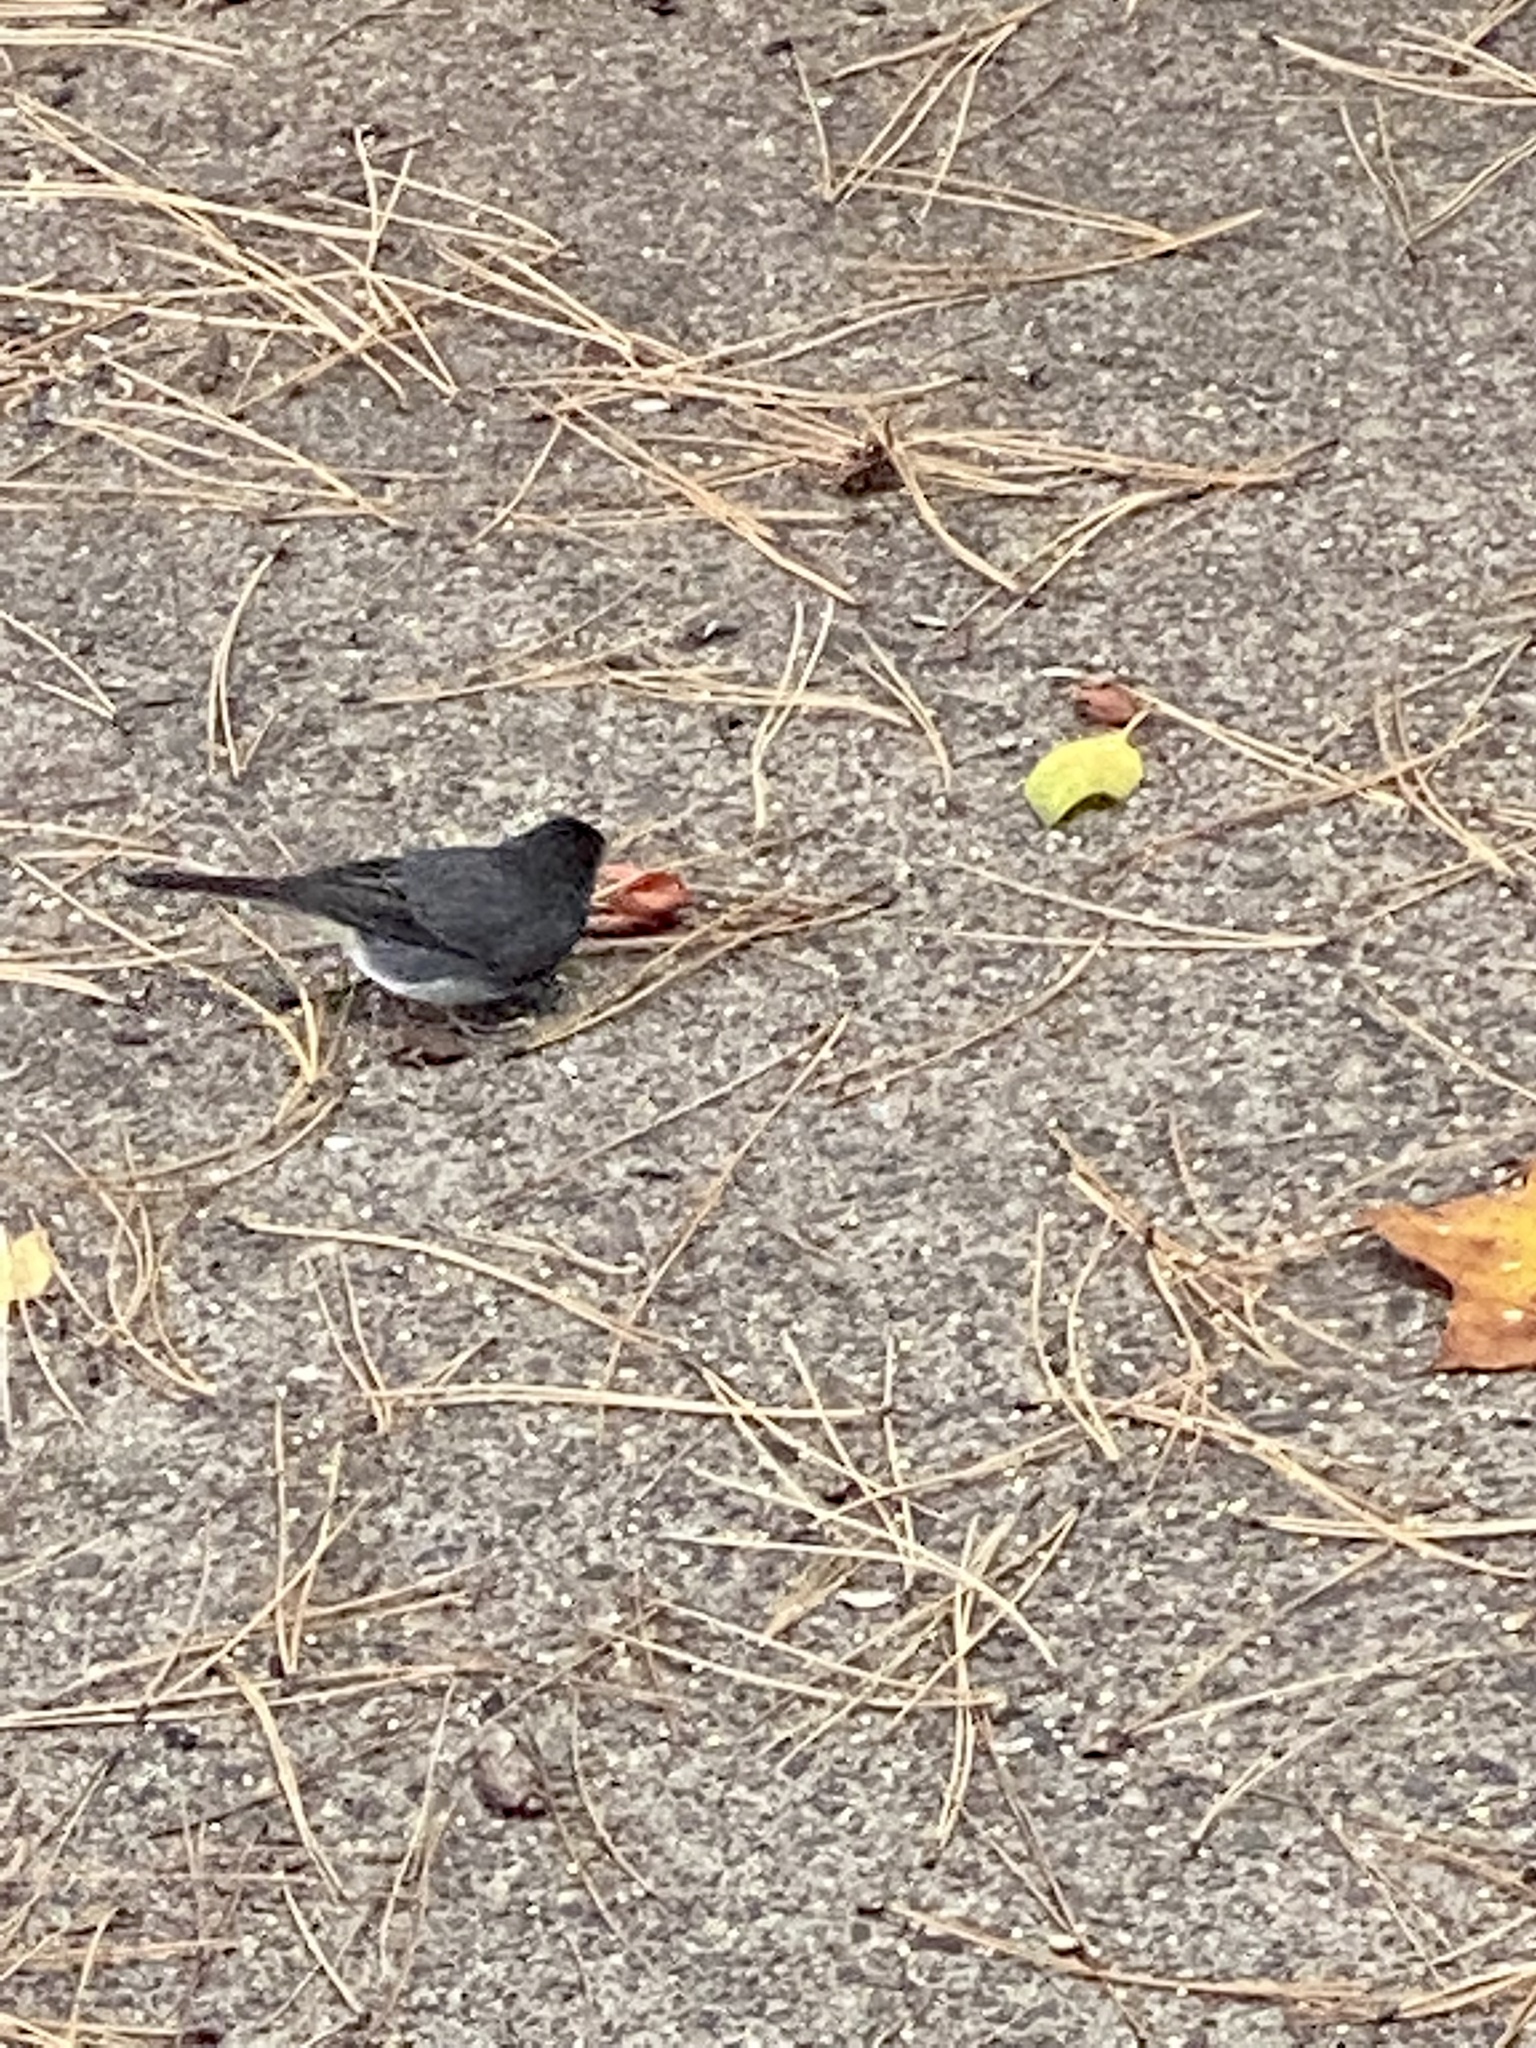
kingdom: Animalia
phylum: Chordata
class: Aves
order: Passeriformes
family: Passerellidae
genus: Junco
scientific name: Junco hyemalis
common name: Dark-eyed junco
